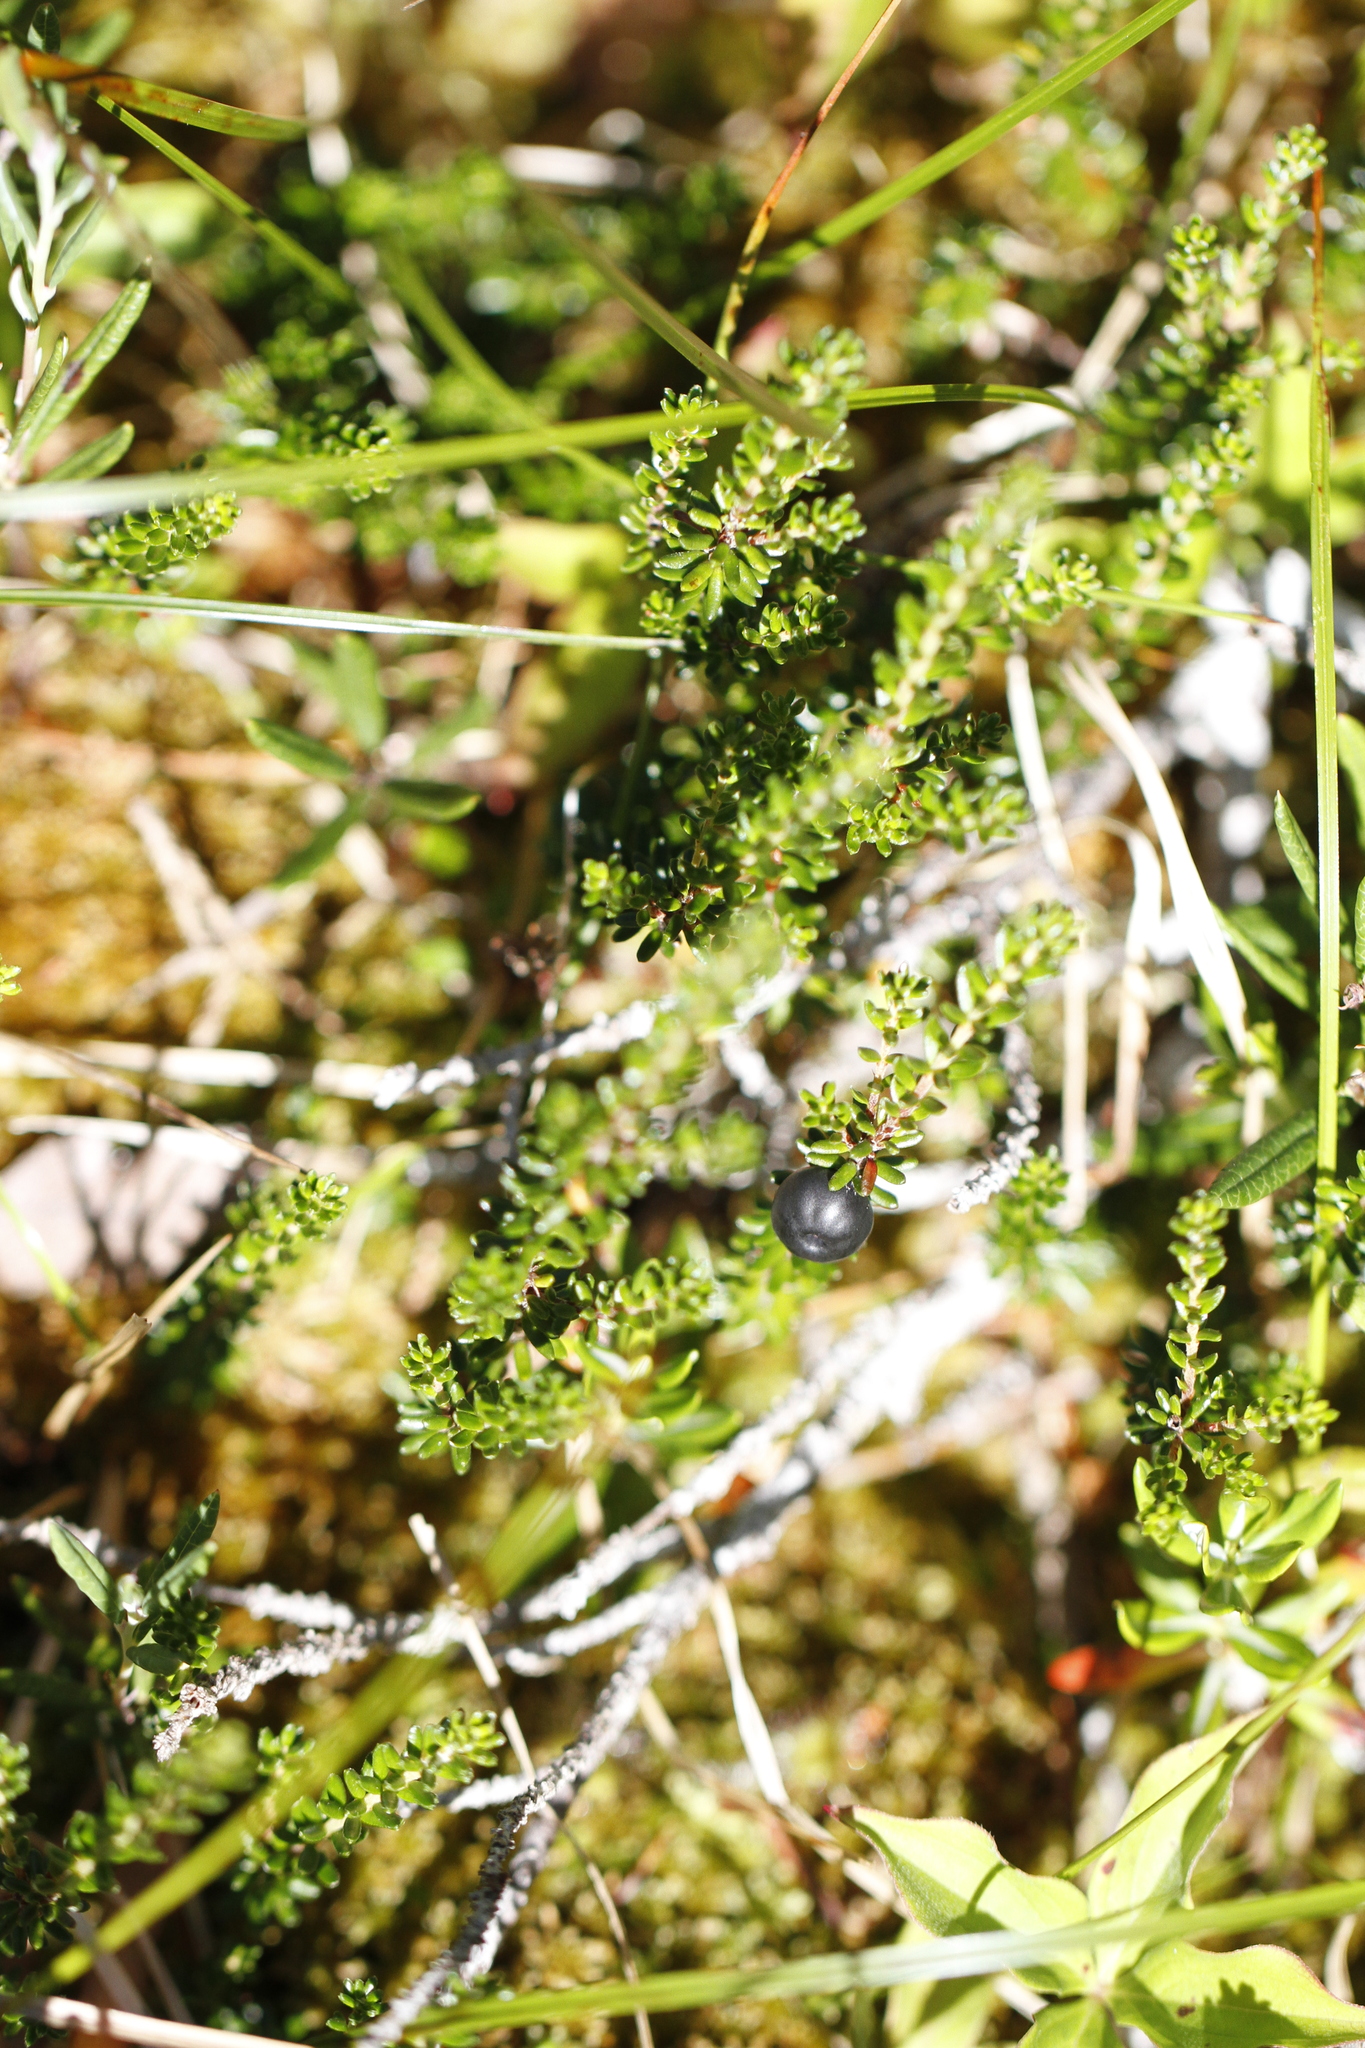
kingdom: Plantae
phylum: Tracheophyta
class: Magnoliopsida
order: Ericales
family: Ericaceae
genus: Empetrum
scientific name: Empetrum nigrum
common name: Black crowberry
